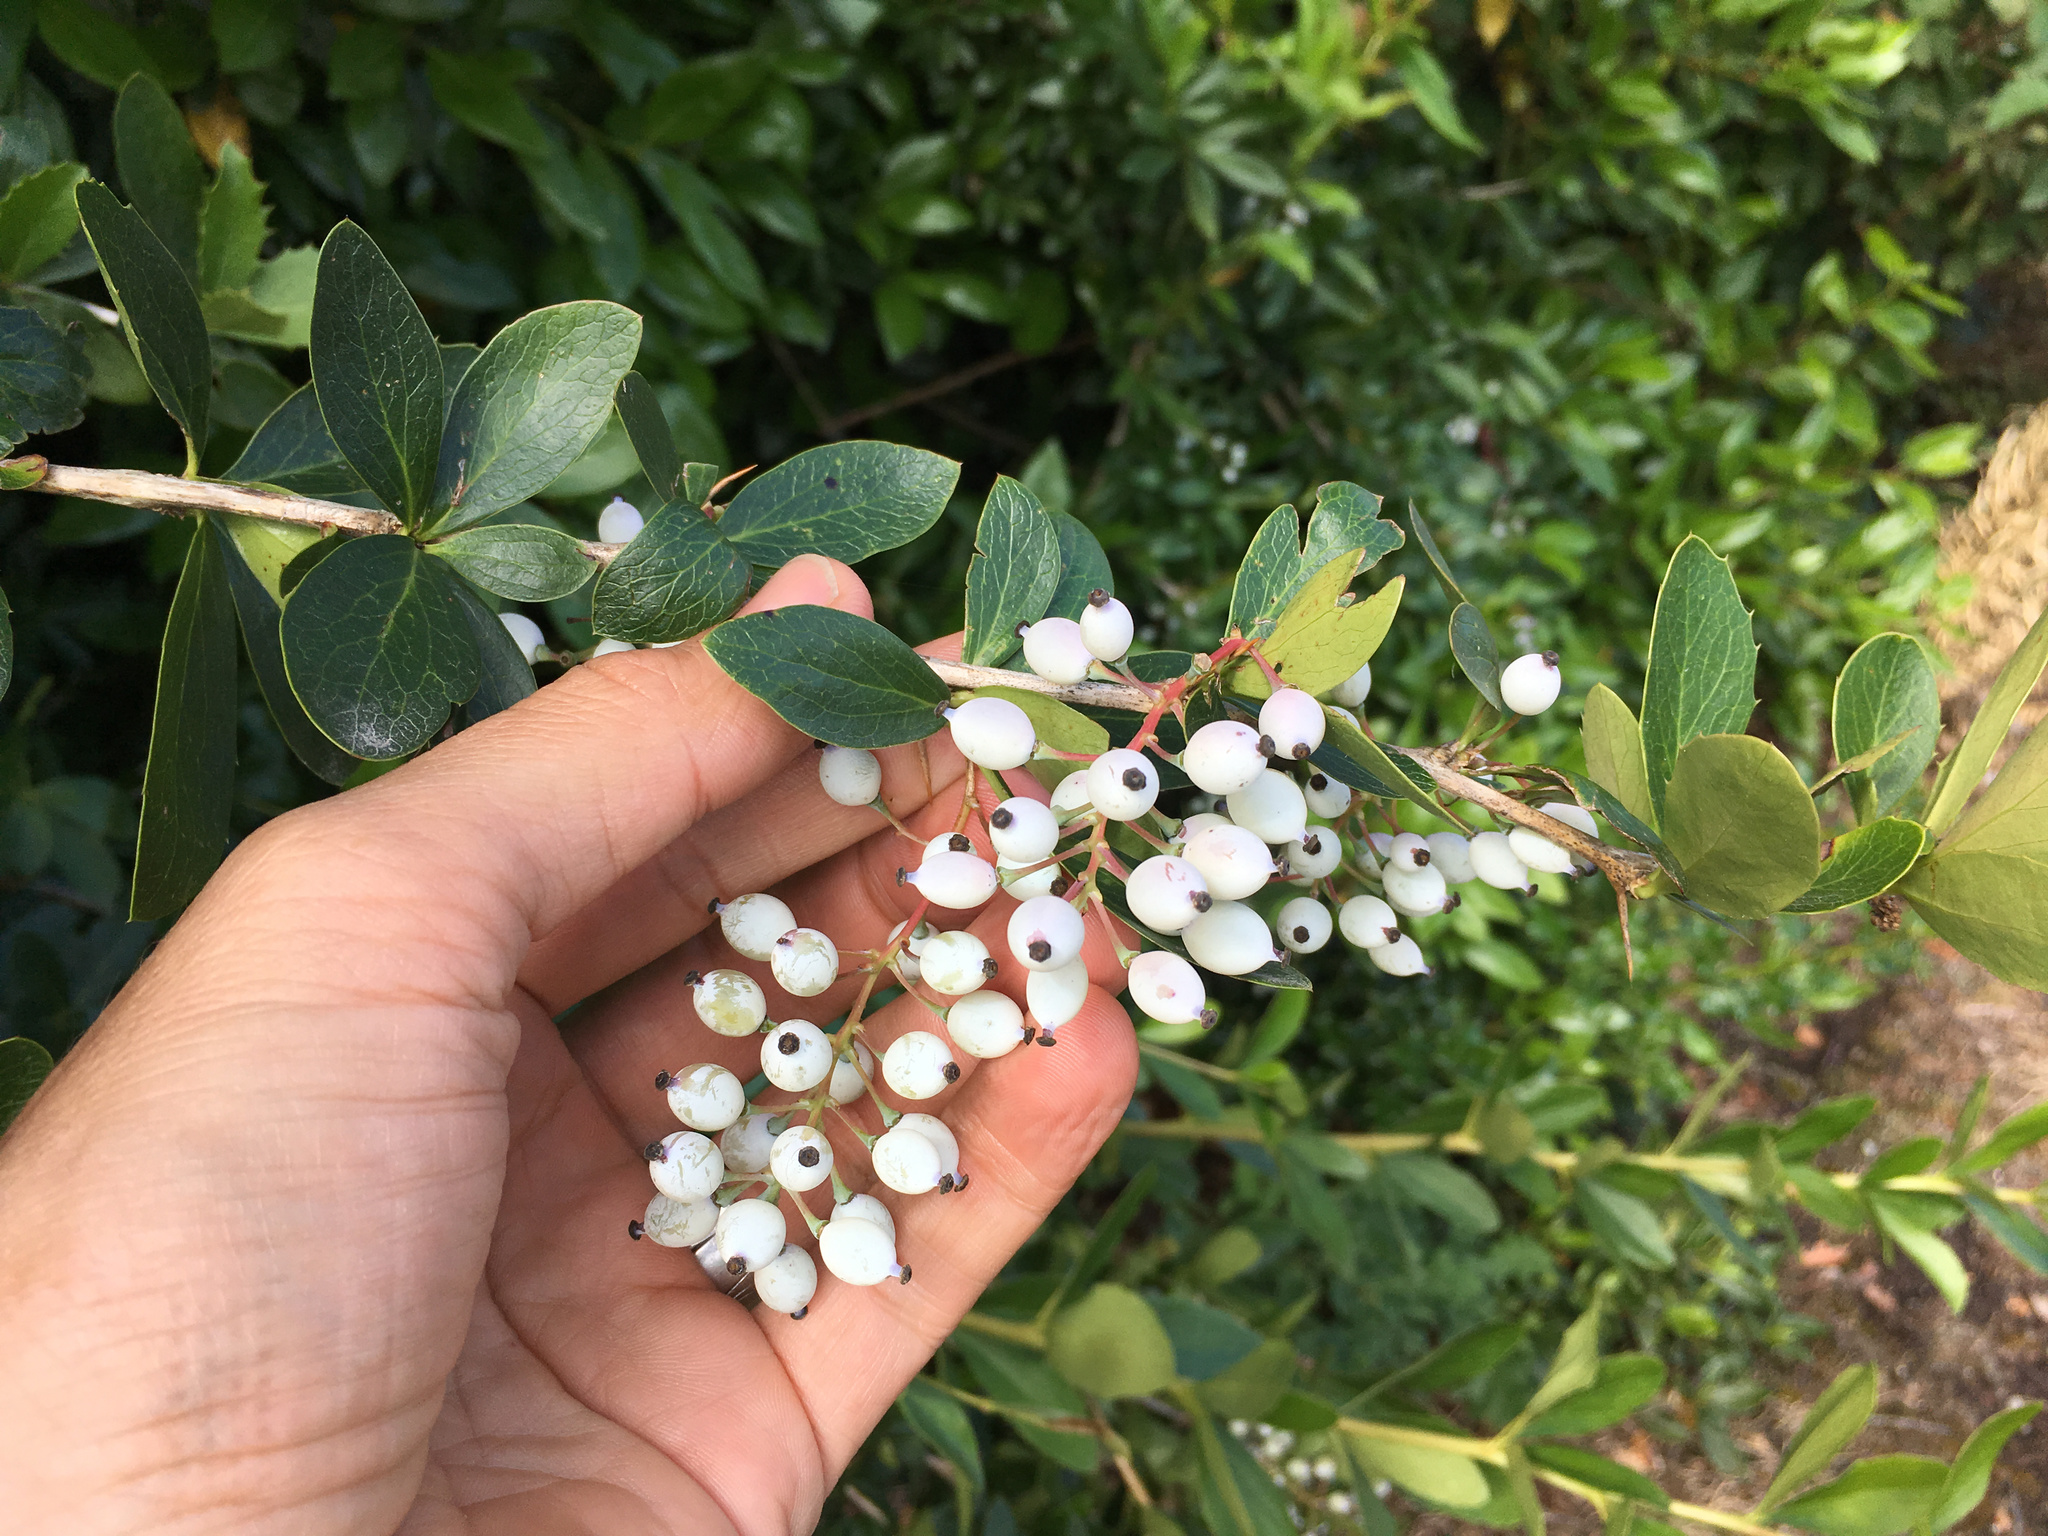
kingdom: Plantae
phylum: Tracheophyta
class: Magnoliopsida
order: Ranunculales
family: Berberidaceae
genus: Berberis
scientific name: Berberis glaucocarpa
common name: Great barberry
